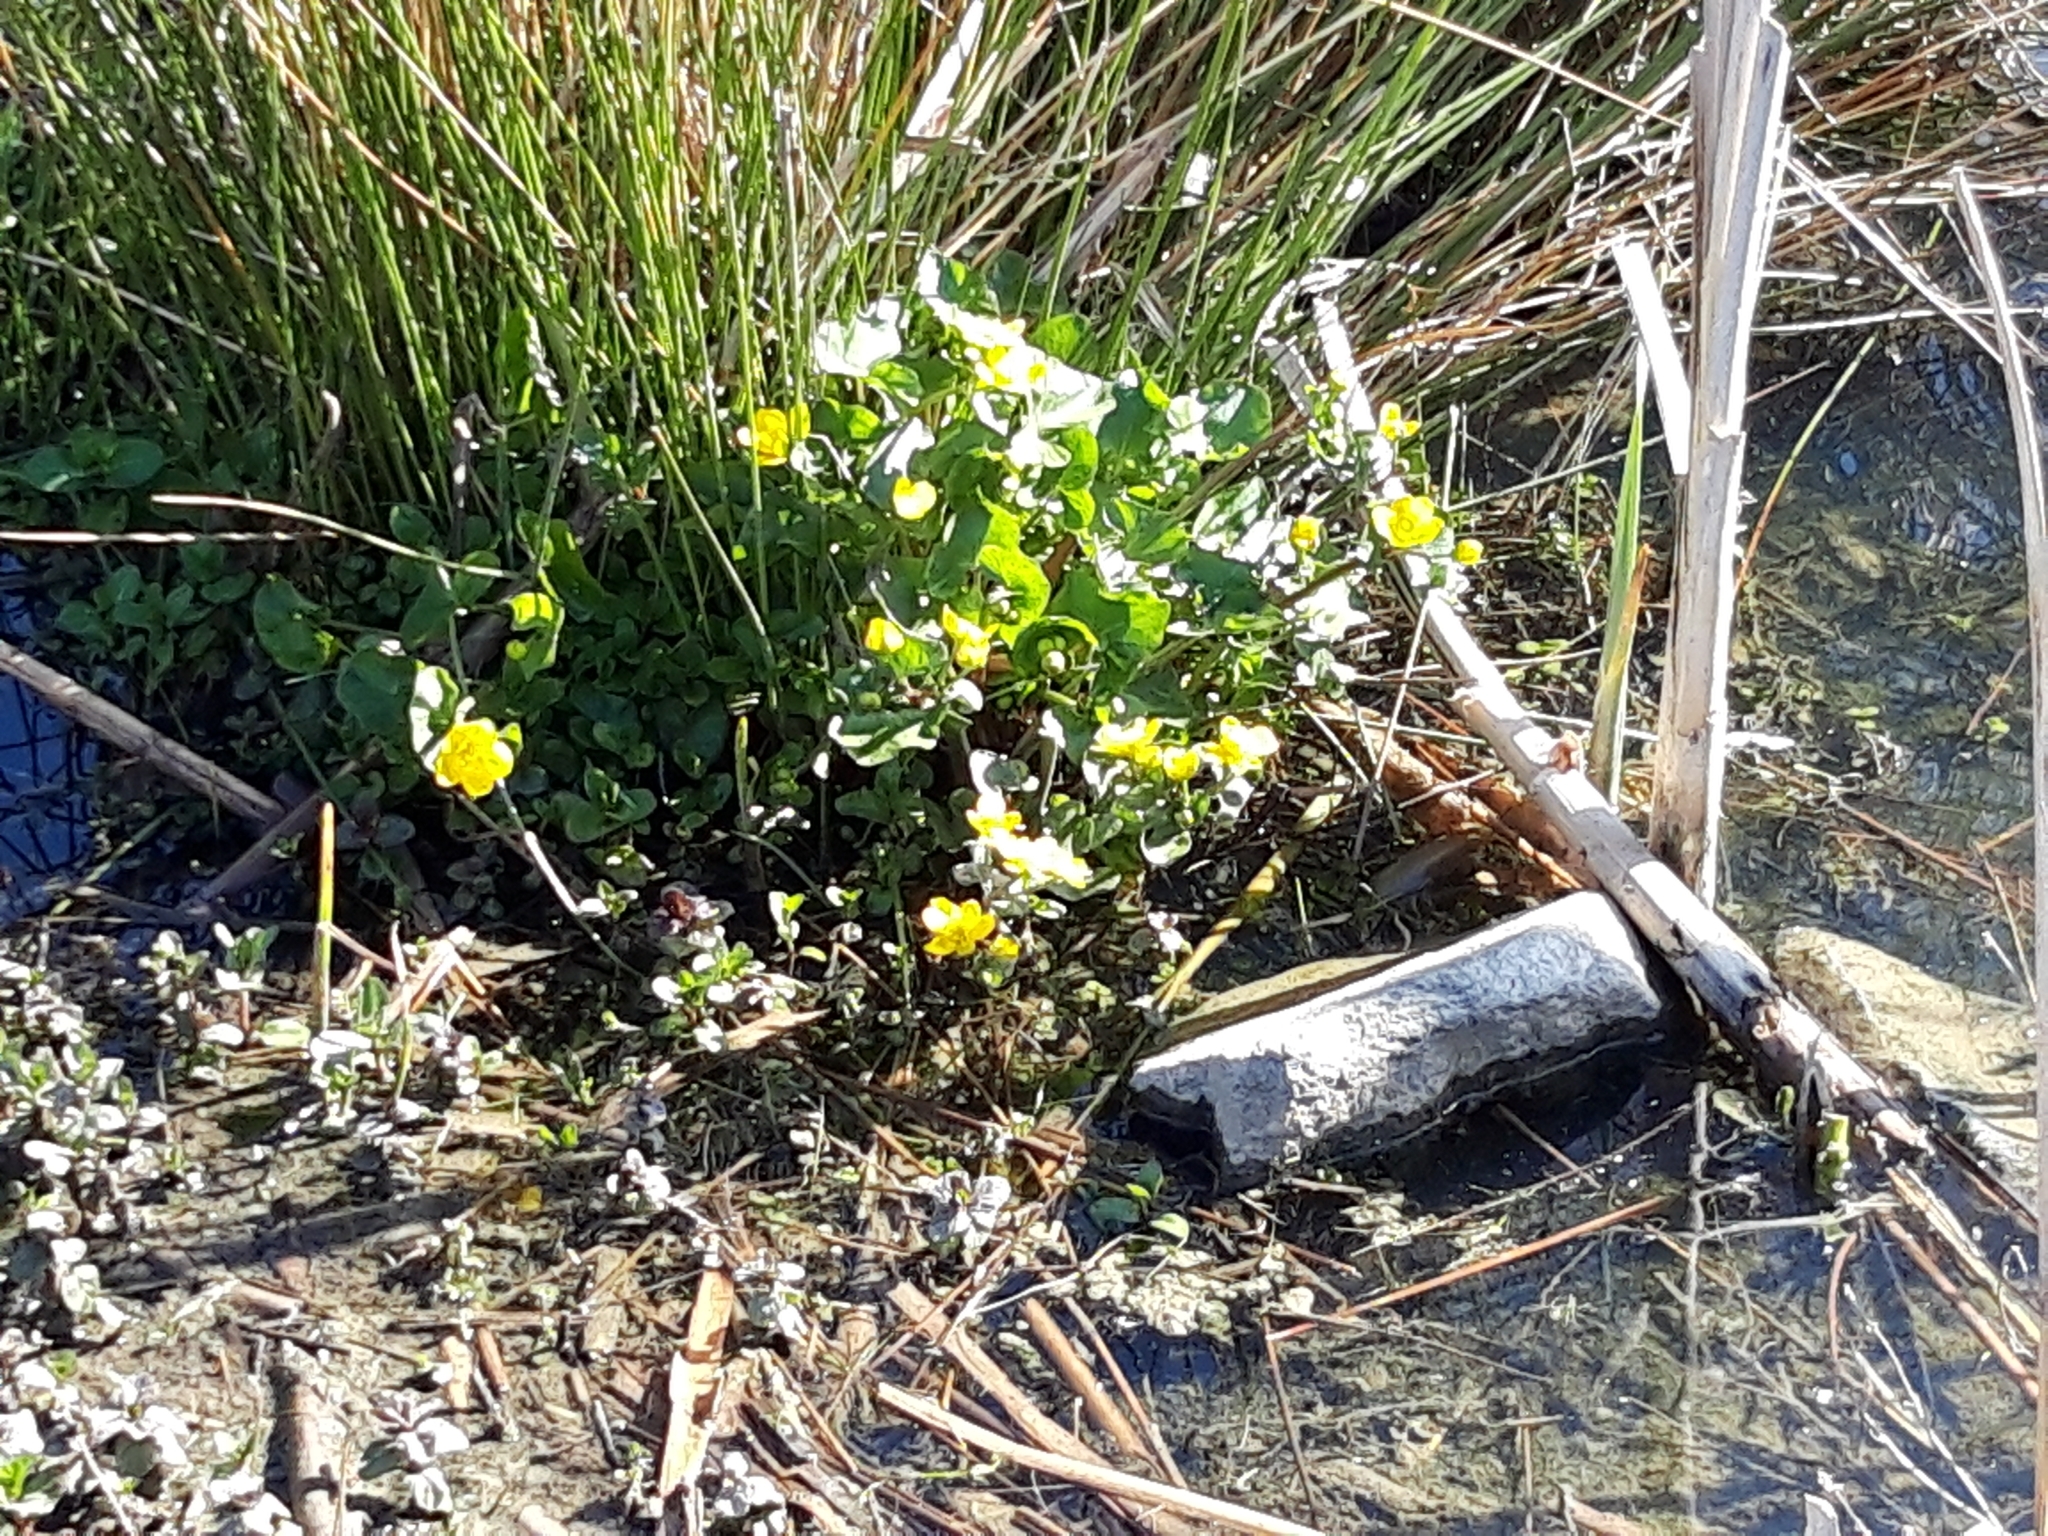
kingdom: Plantae
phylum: Tracheophyta
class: Magnoliopsida
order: Ranunculales
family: Ranunculaceae
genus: Caltha
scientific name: Caltha palustris
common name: Marsh marigold
